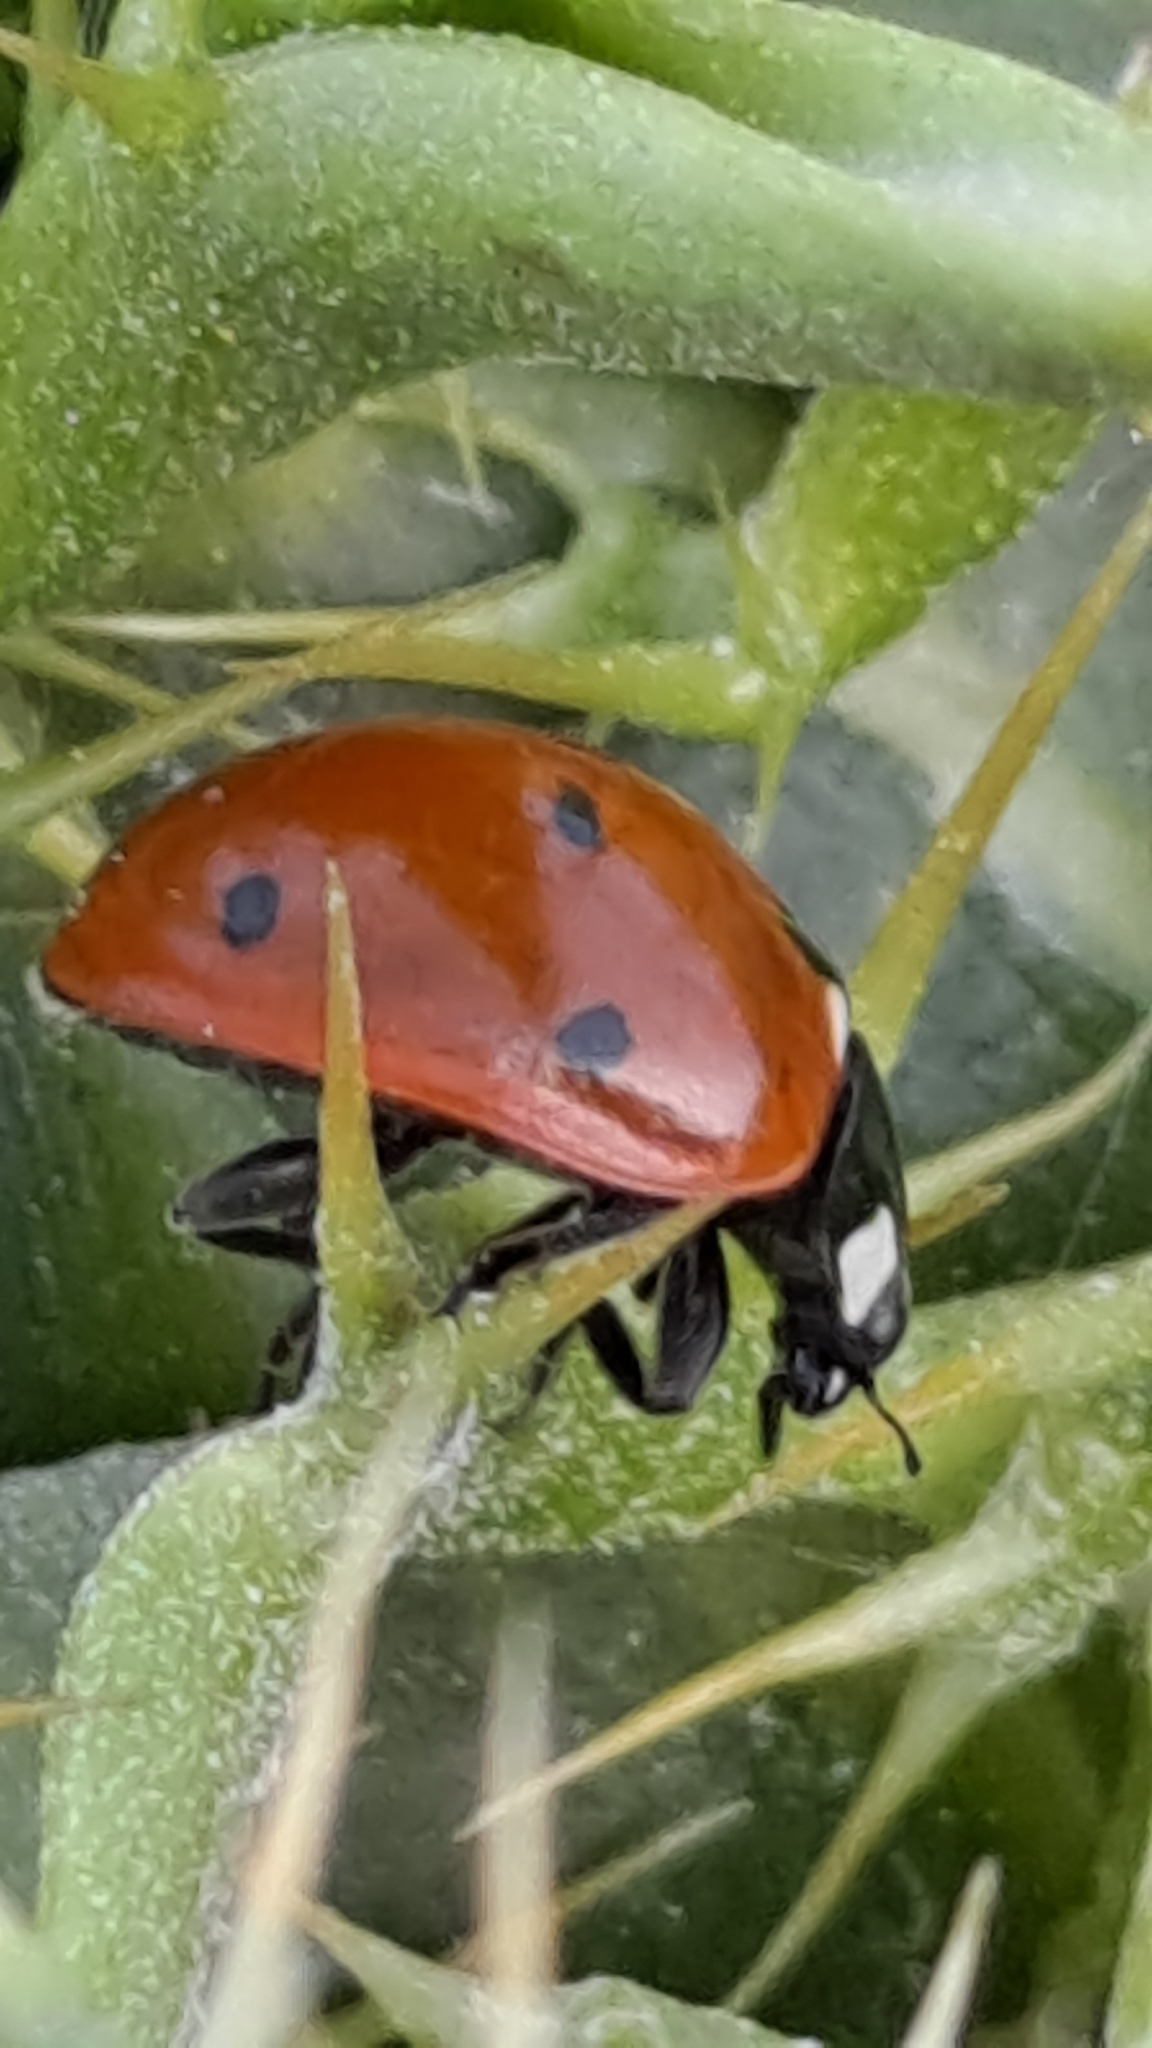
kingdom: Animalia
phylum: Arthropoda
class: Insecta
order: Coleoptera
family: Coccinellidae
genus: Coccinella
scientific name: Coccinella septempunctata
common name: Sevenspotted lady beetle
